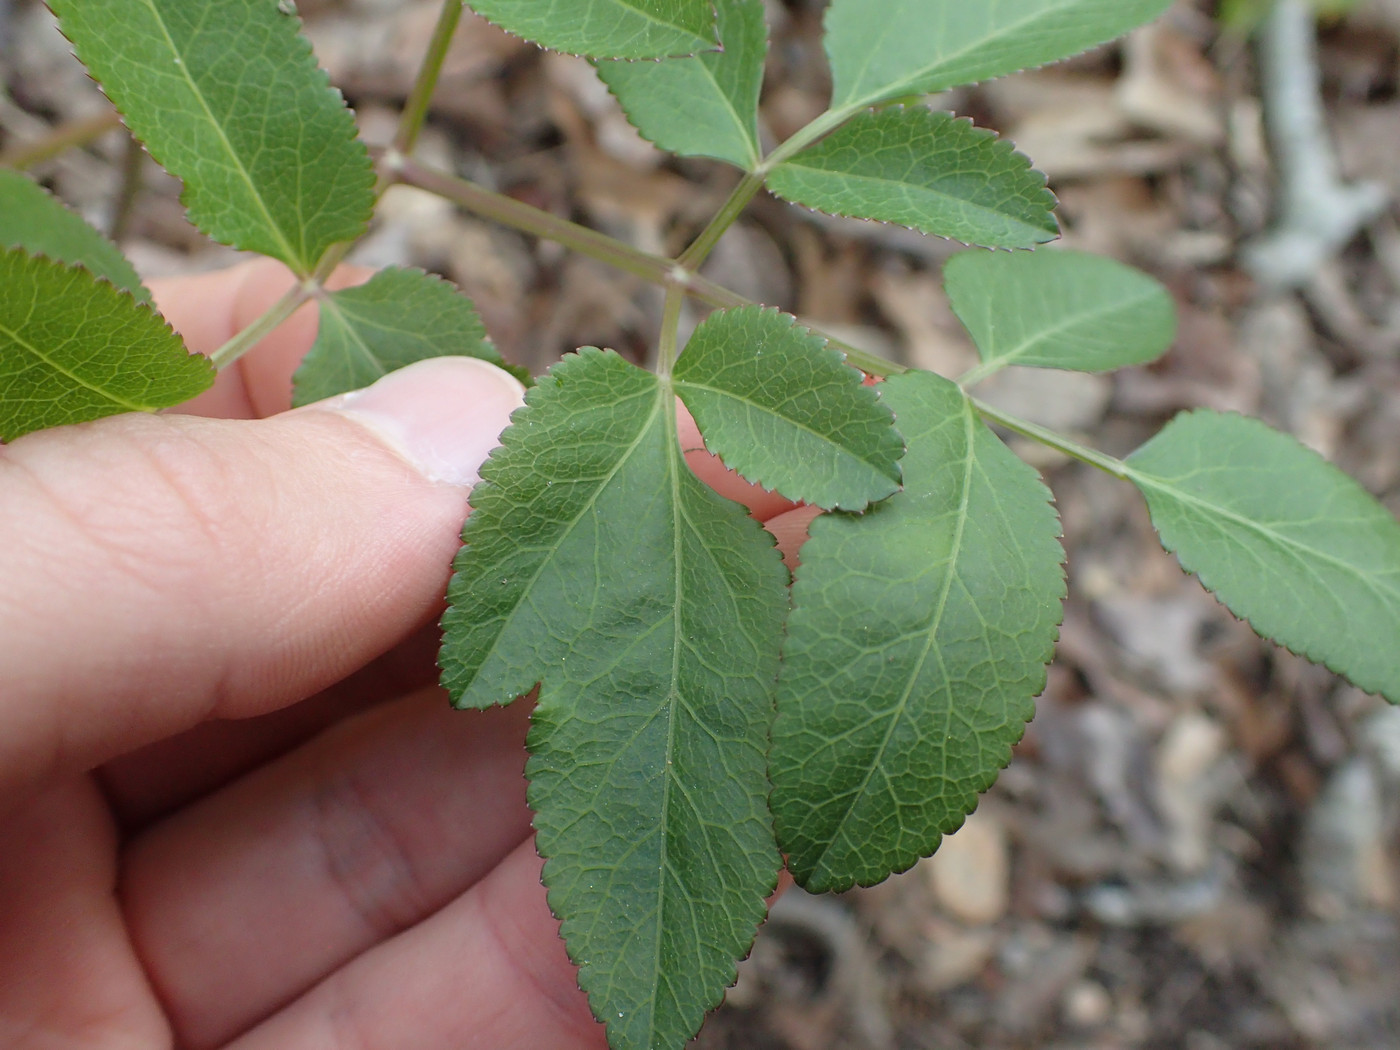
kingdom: Plantae
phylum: Tracheophyta
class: Magnoliopsida
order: Apiales
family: Apiaceae
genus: Angelica
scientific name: Angelica venenosa
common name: Hairy angelica
